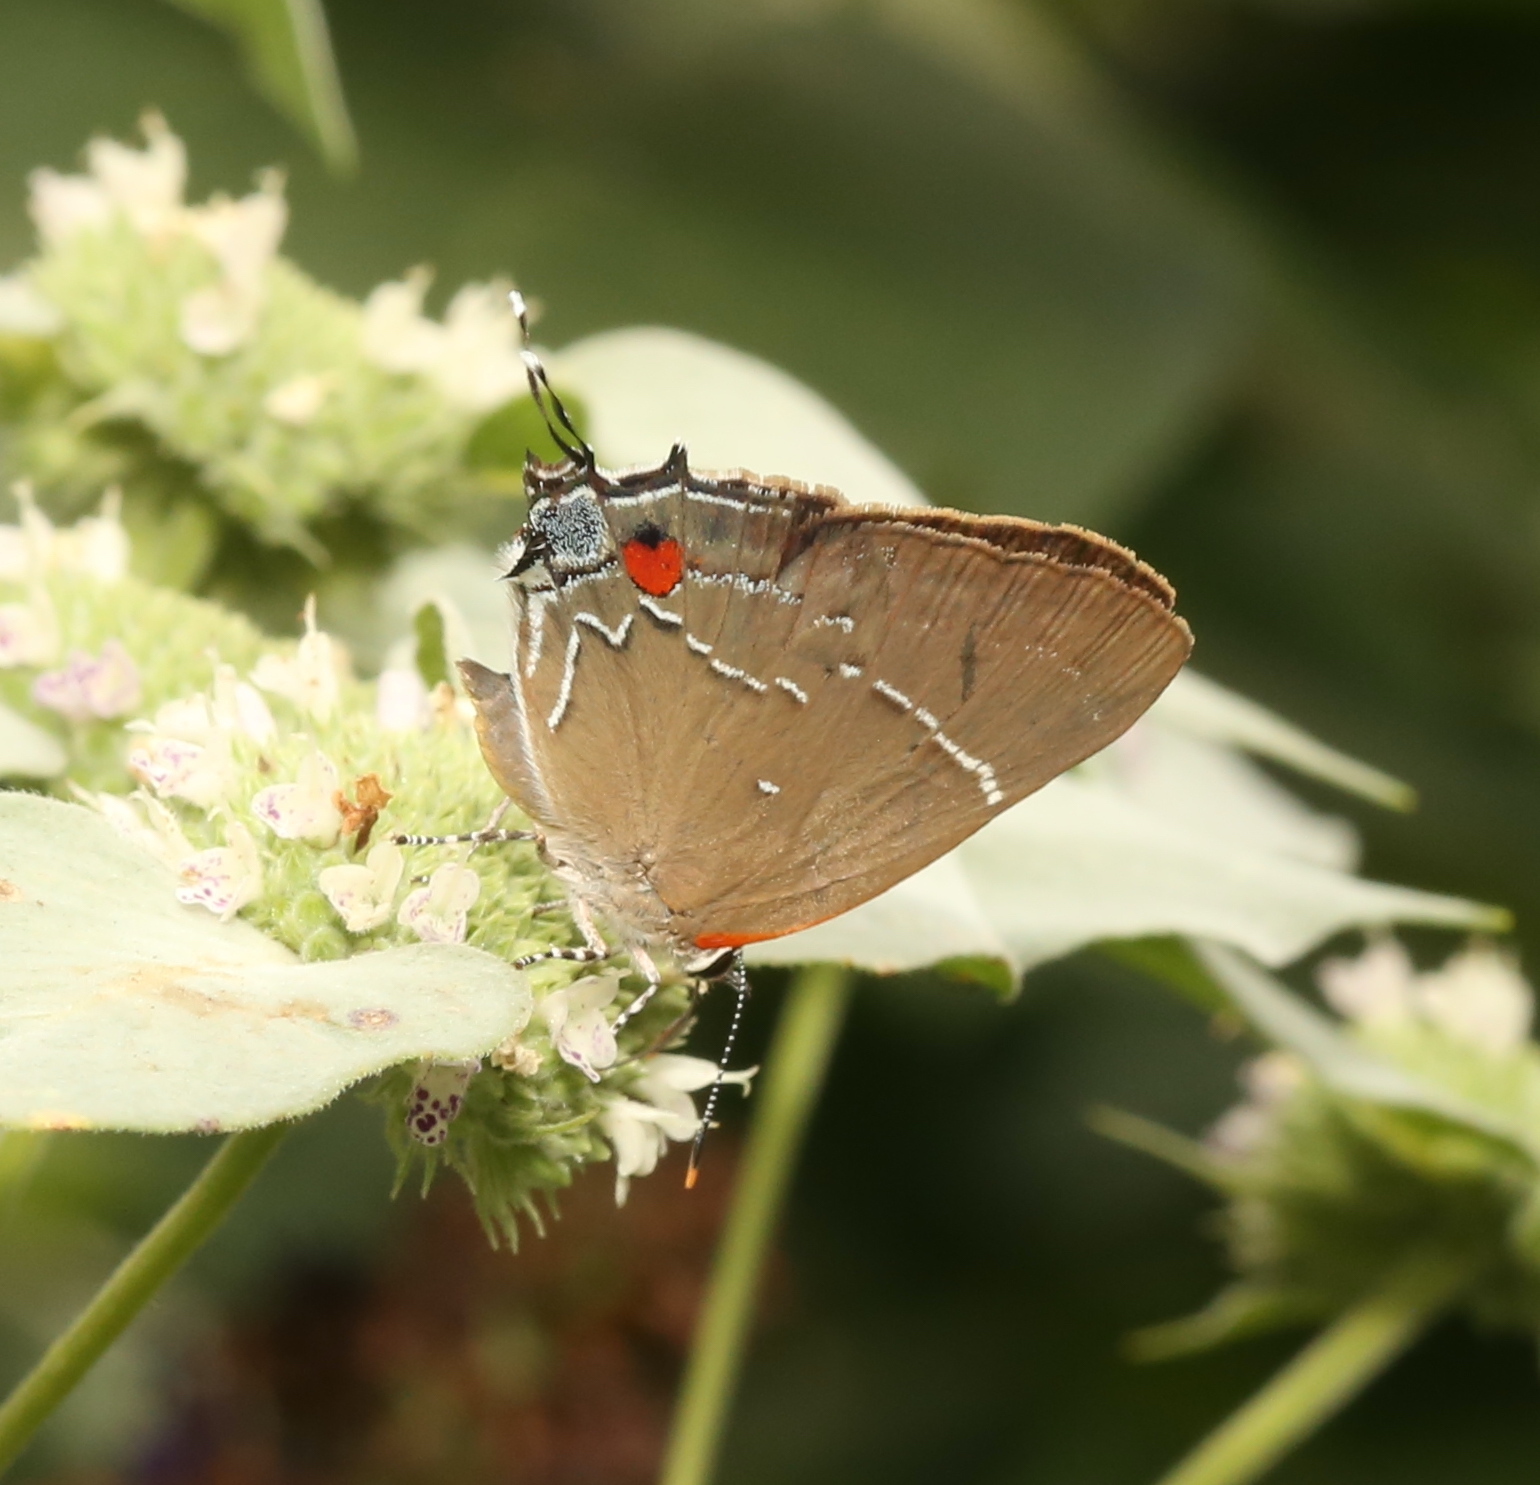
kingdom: Animalia
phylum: Arthropoda
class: Insecta
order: Lepidoptera
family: Lycaenidae
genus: Parrhasius
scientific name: Parrhasius m-album
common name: White m hairstreak
